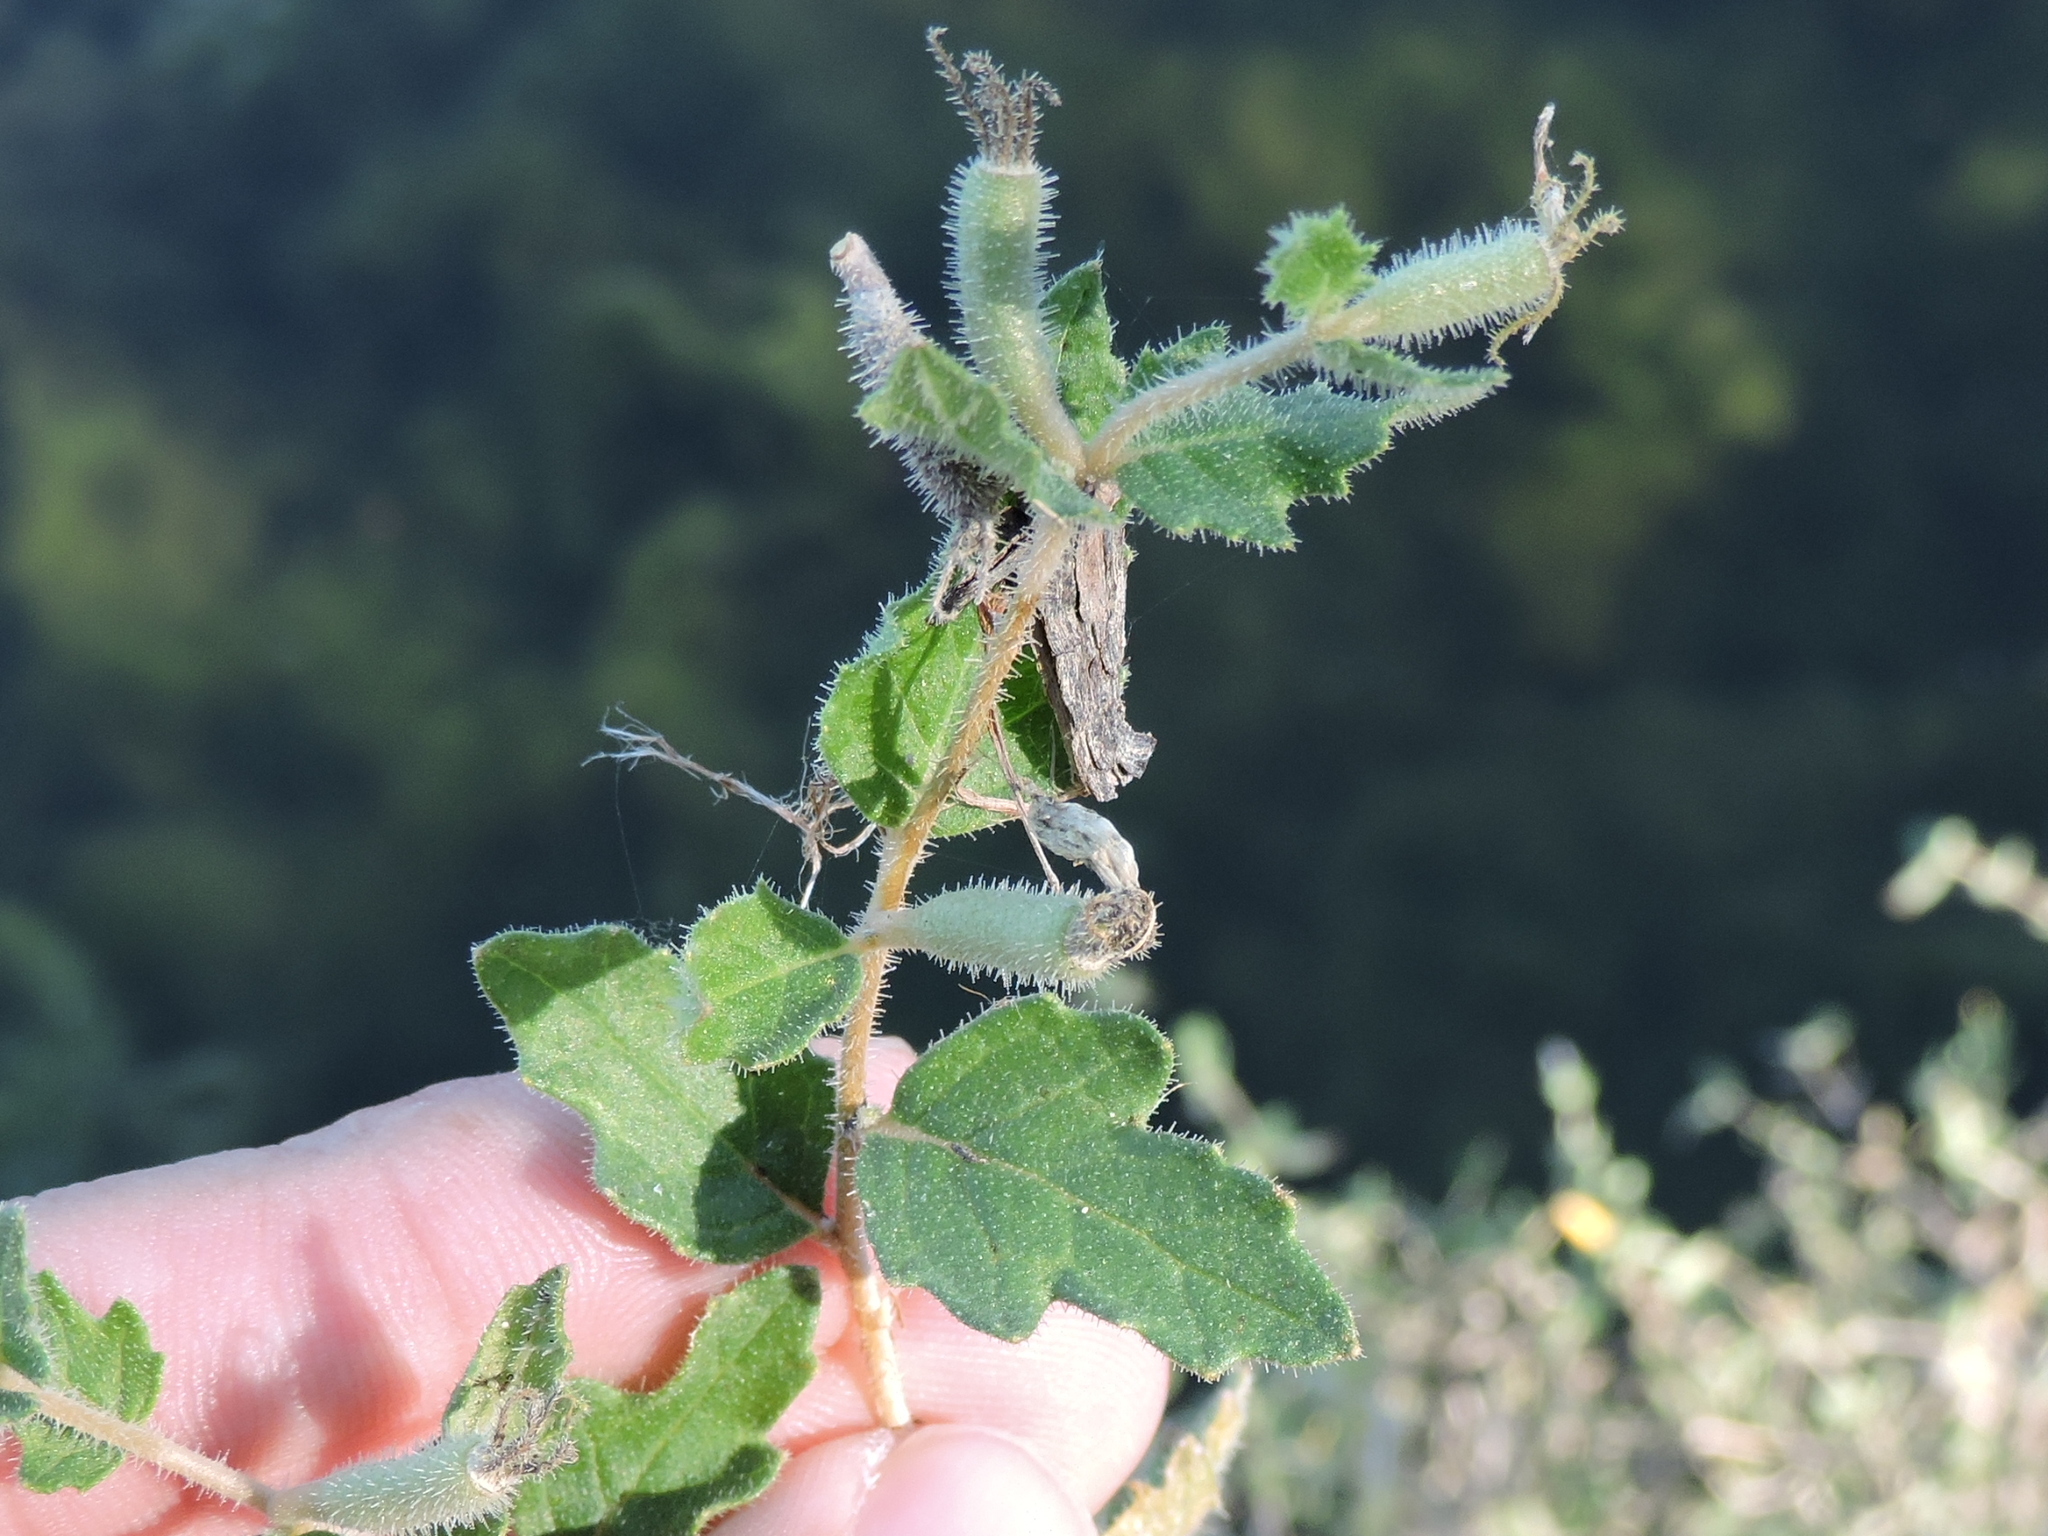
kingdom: Plantae
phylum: Tracheophyta
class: Magnoliopsida
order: Cornales
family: Loasaceae
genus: Mentzelia
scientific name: Mentzelia oligosperma
